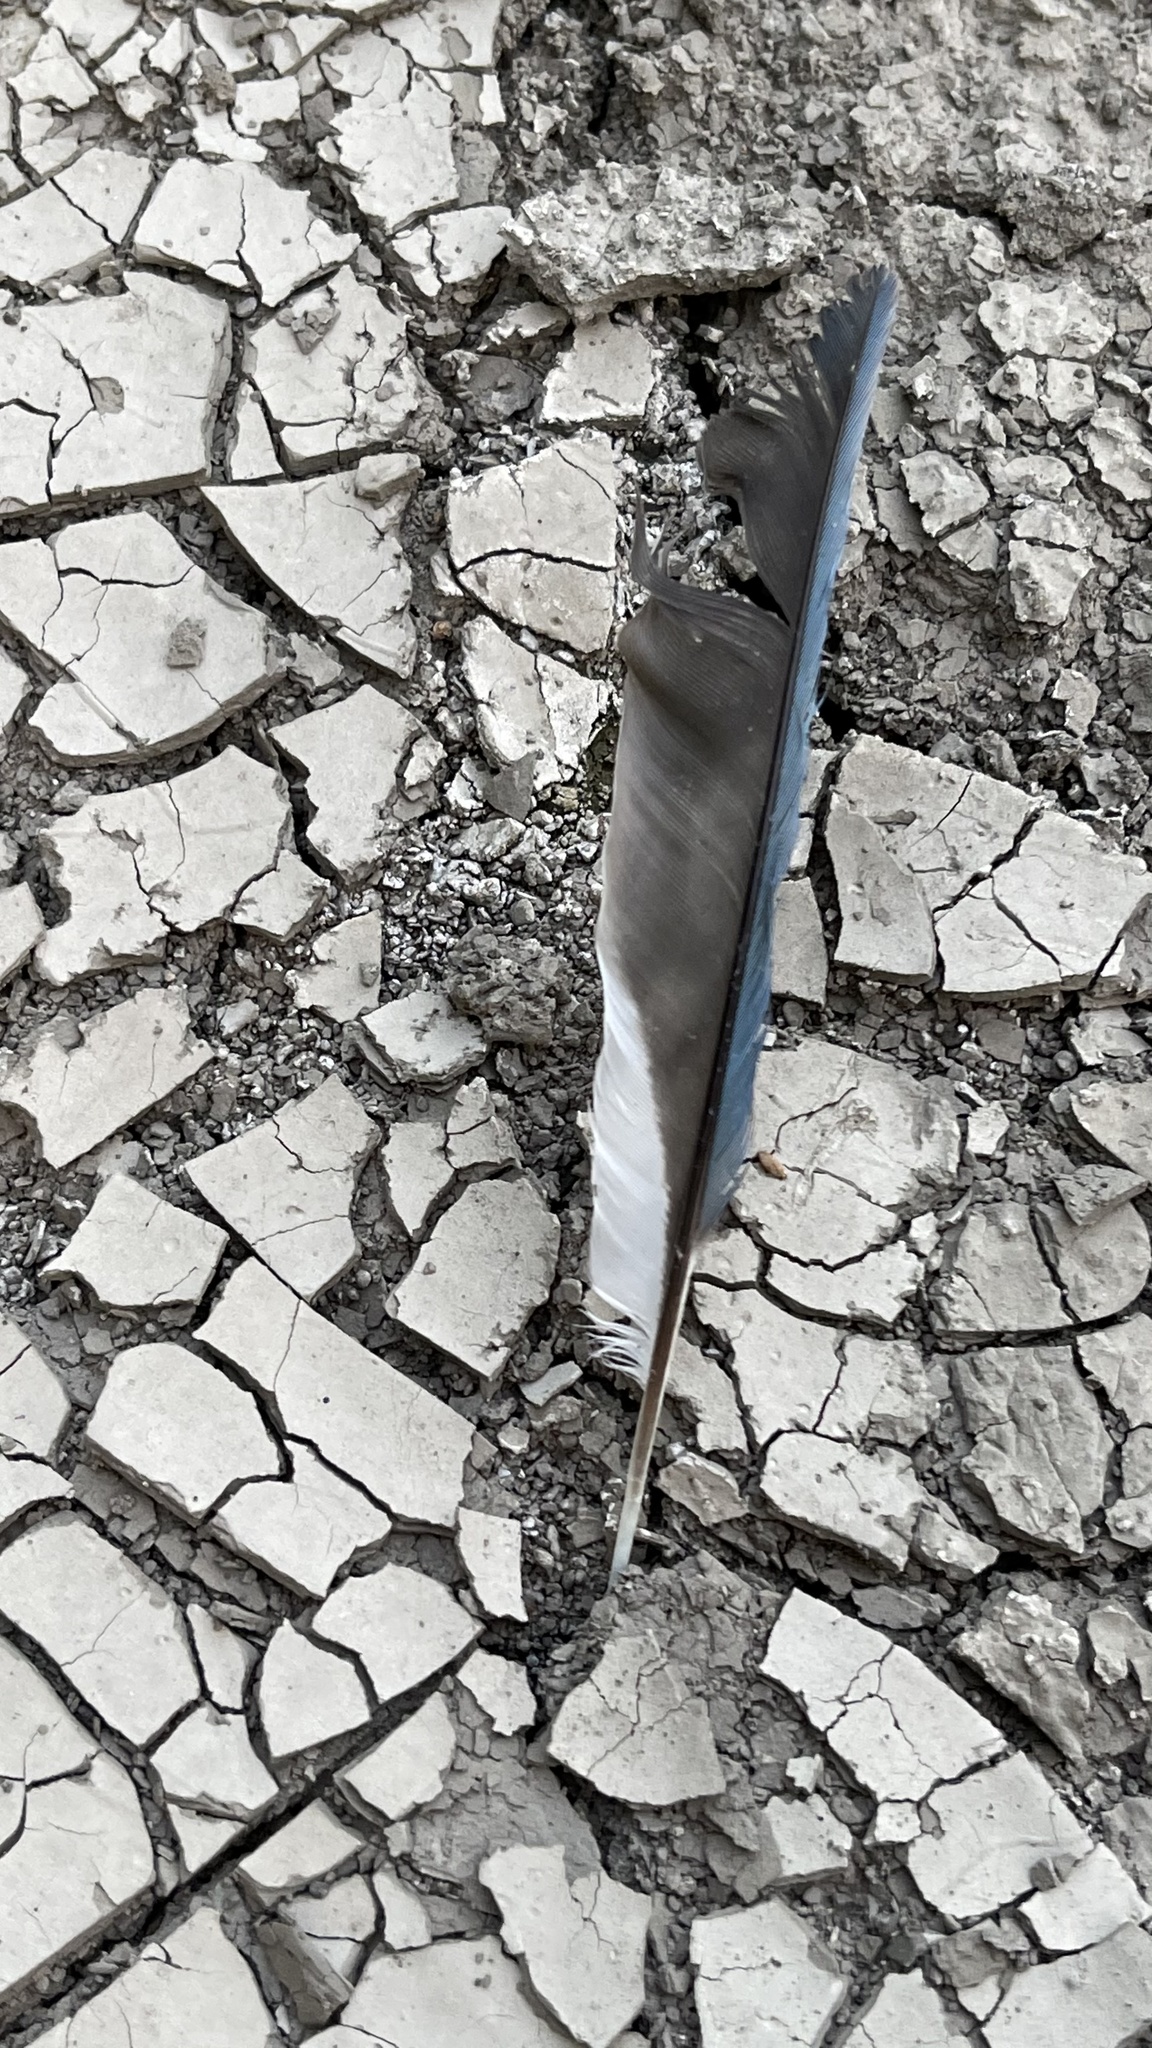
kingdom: Animalia
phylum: Chordata
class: Aves
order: Passeriformes
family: Corvidae
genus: Cyanocitta
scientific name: Cyanocitta cristata
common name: Blue jay
